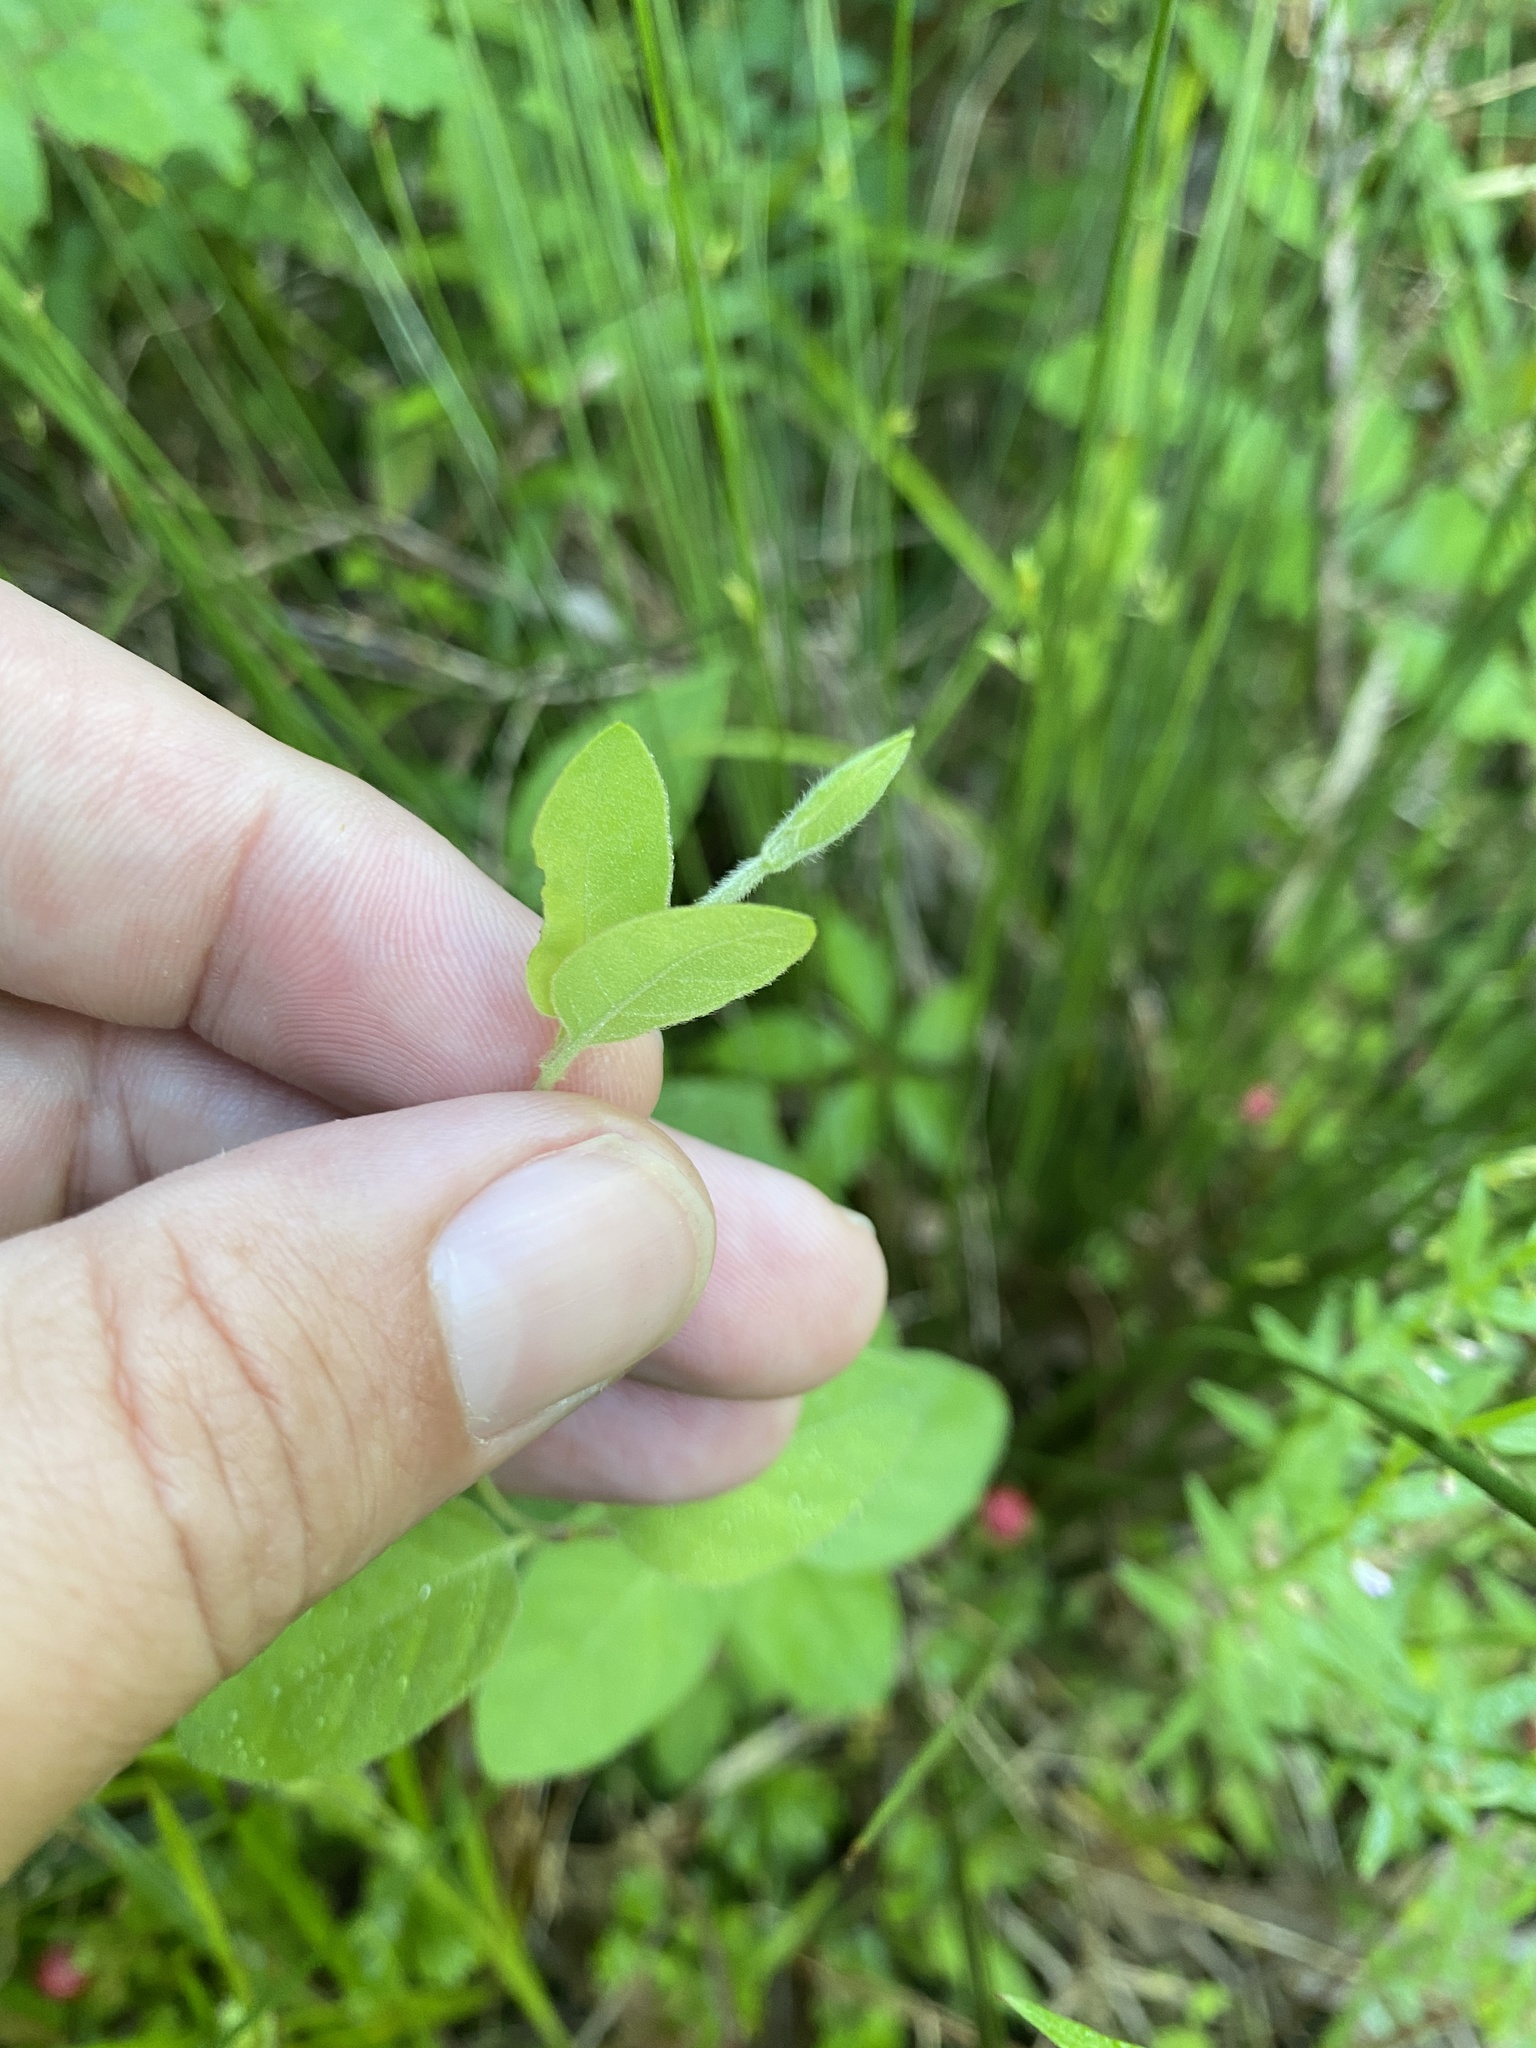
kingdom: Plantae
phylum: Tracheophyta
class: Magnoliopsida
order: Dipsacales
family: Caprifoliaceae
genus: Lonicera
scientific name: Lonicera japonica
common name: Japanese honeysuckle
